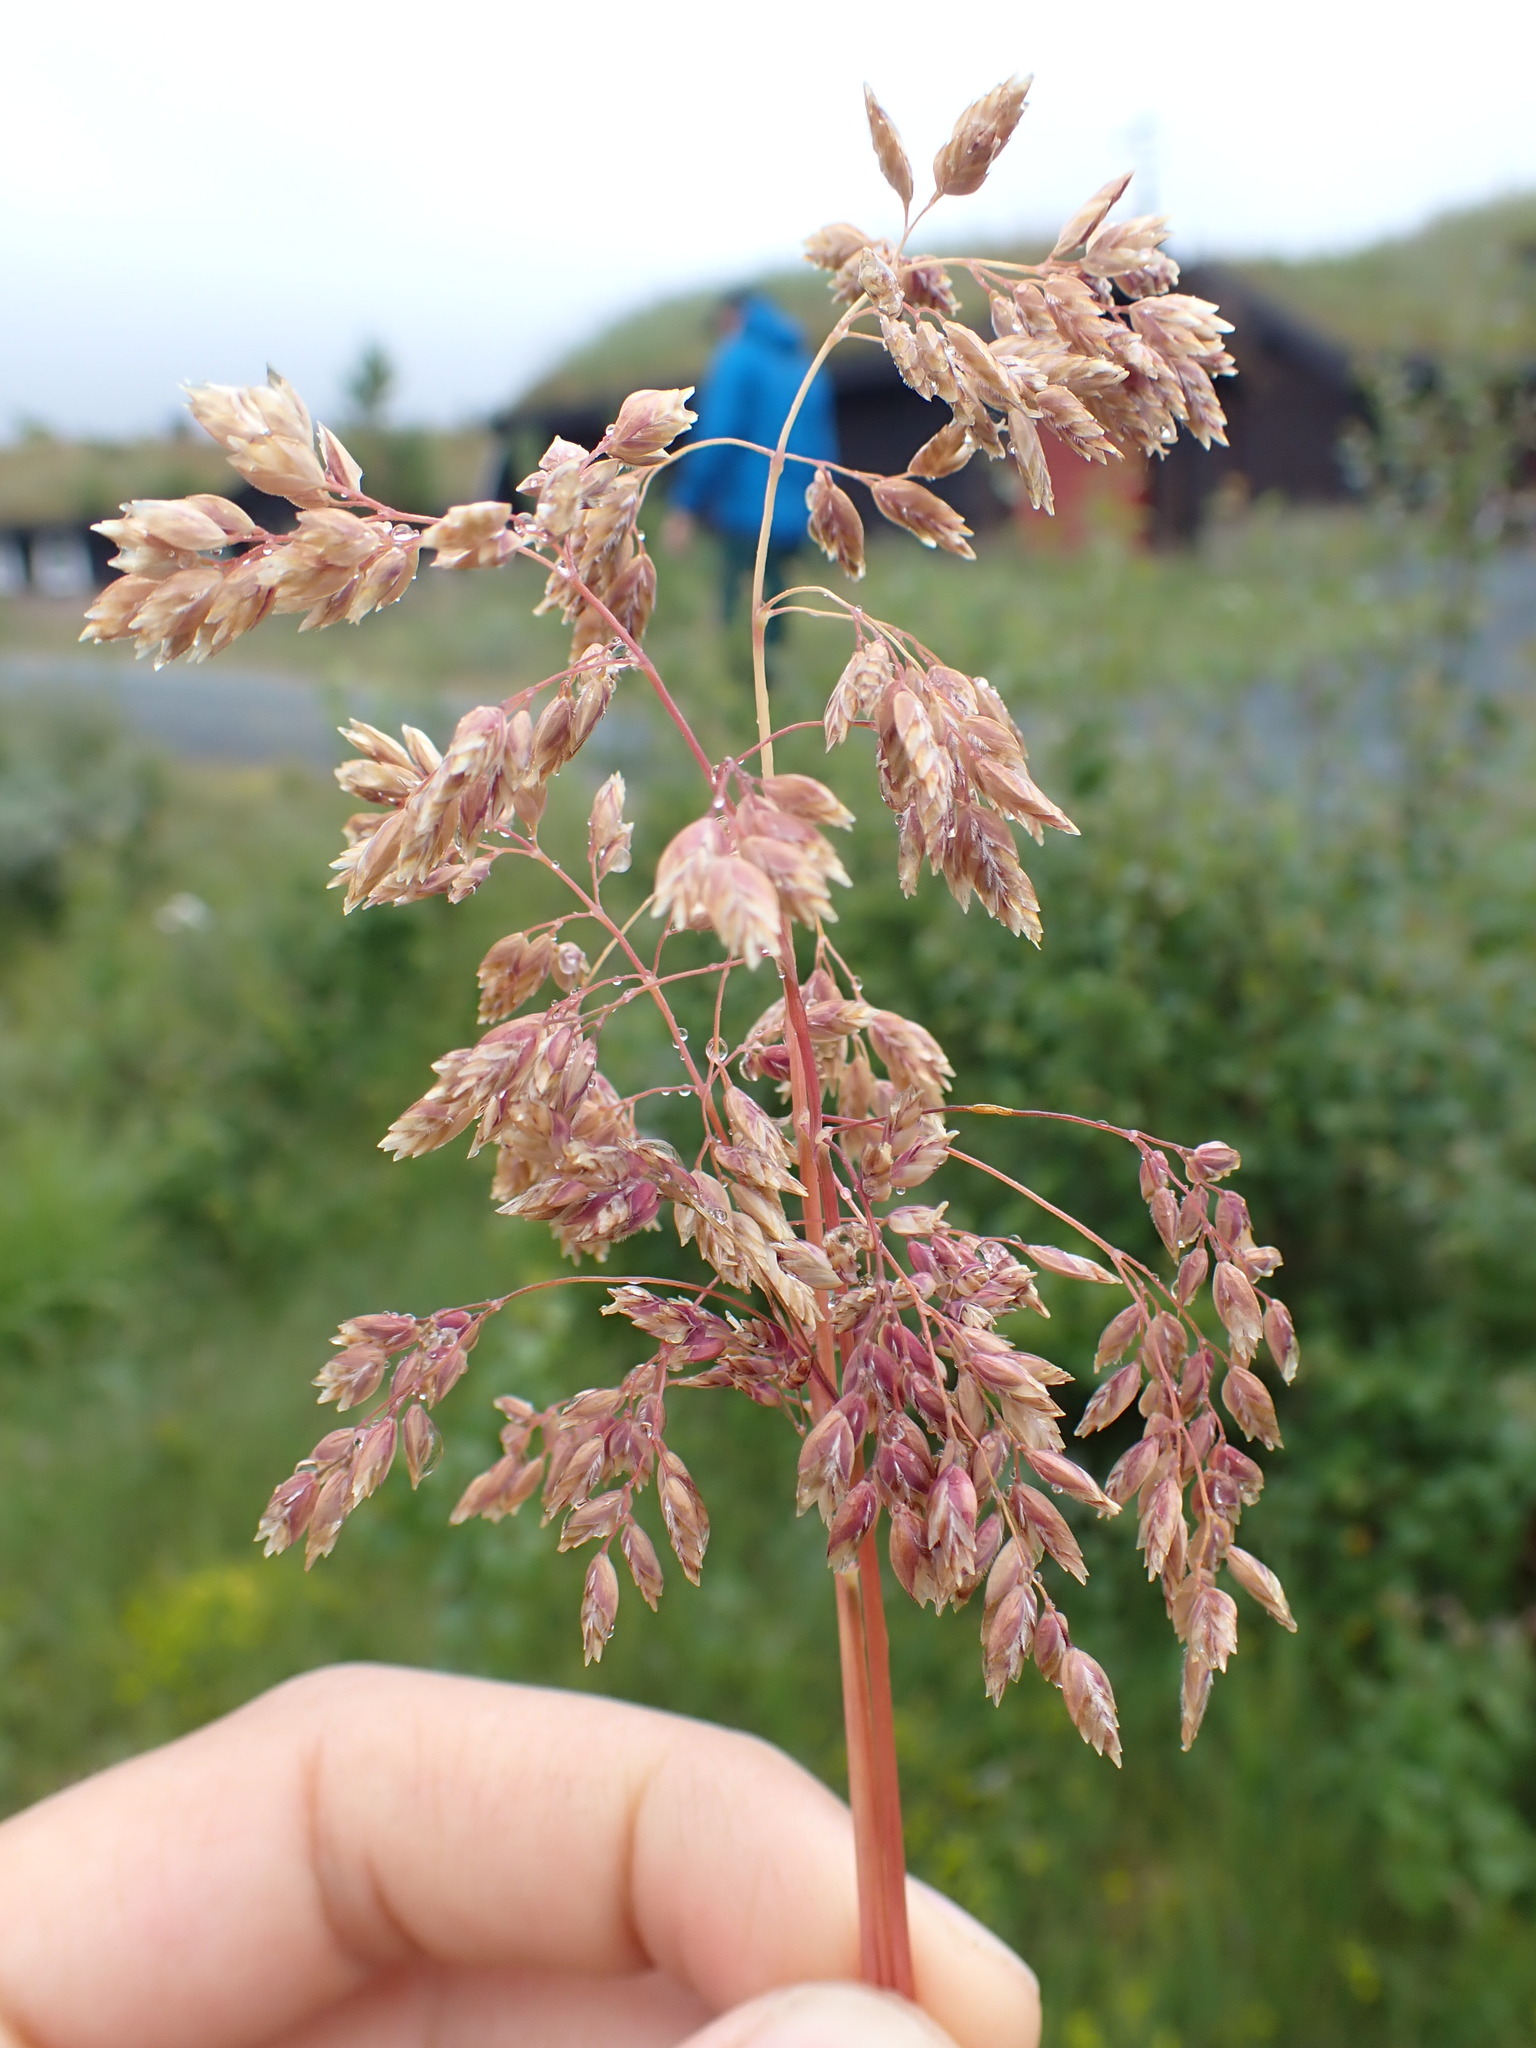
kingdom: Plantae
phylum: Tracheophyta
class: Liliopsida
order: Poales
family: Poaceae
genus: Poa
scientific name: Poa alpina
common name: Alpine bluegrass
